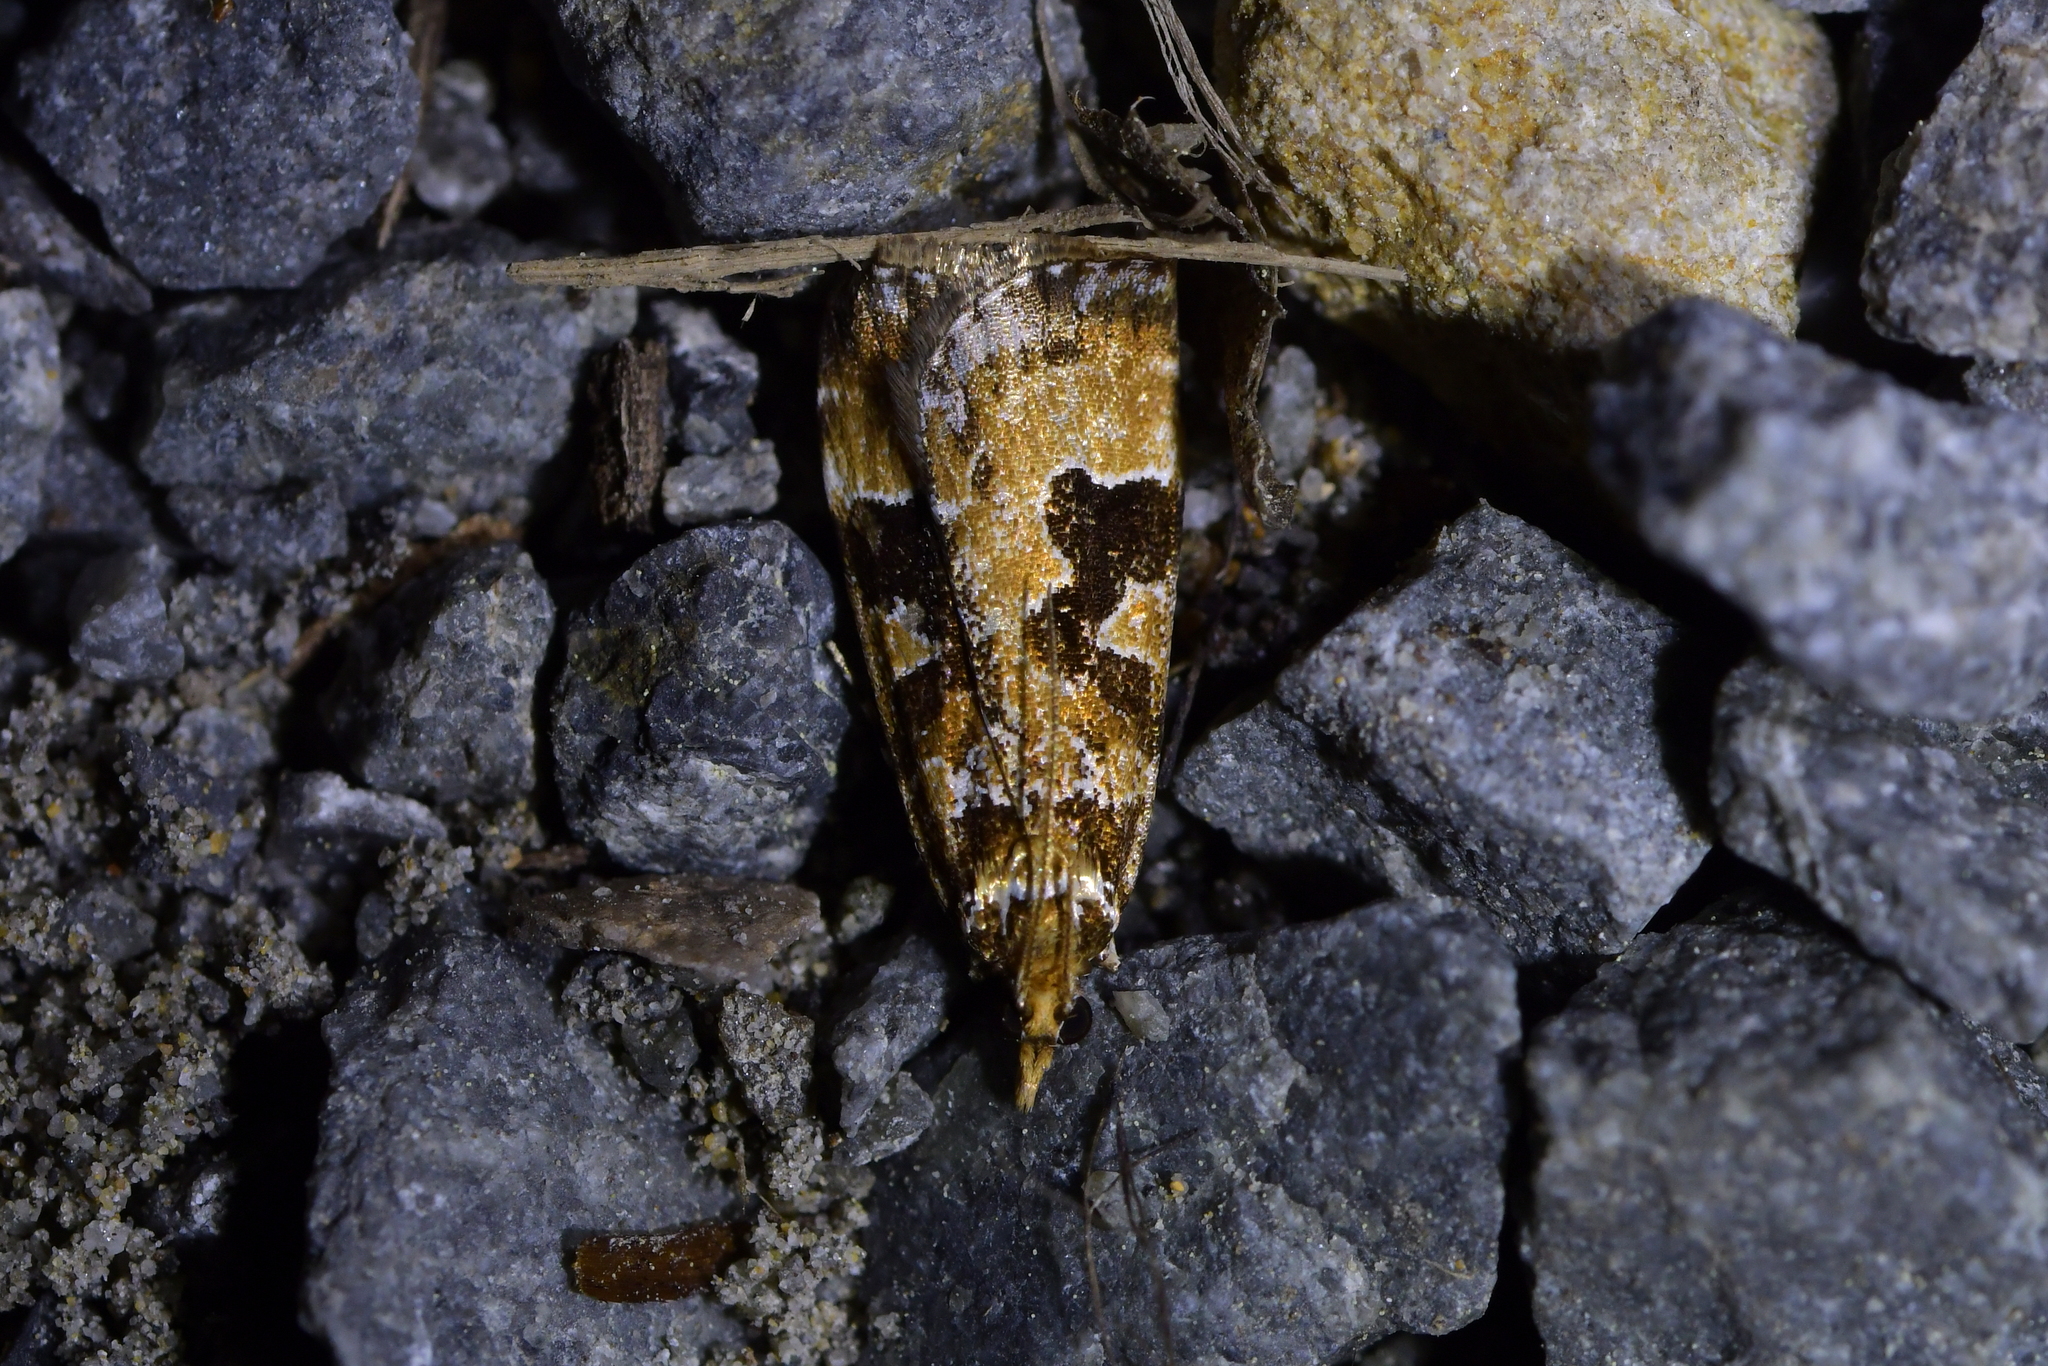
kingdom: Animalia
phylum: Arthropoda
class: Insecta
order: Lepidoptera
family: Crambidae
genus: Scoparia
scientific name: Scoparia ustimacula
